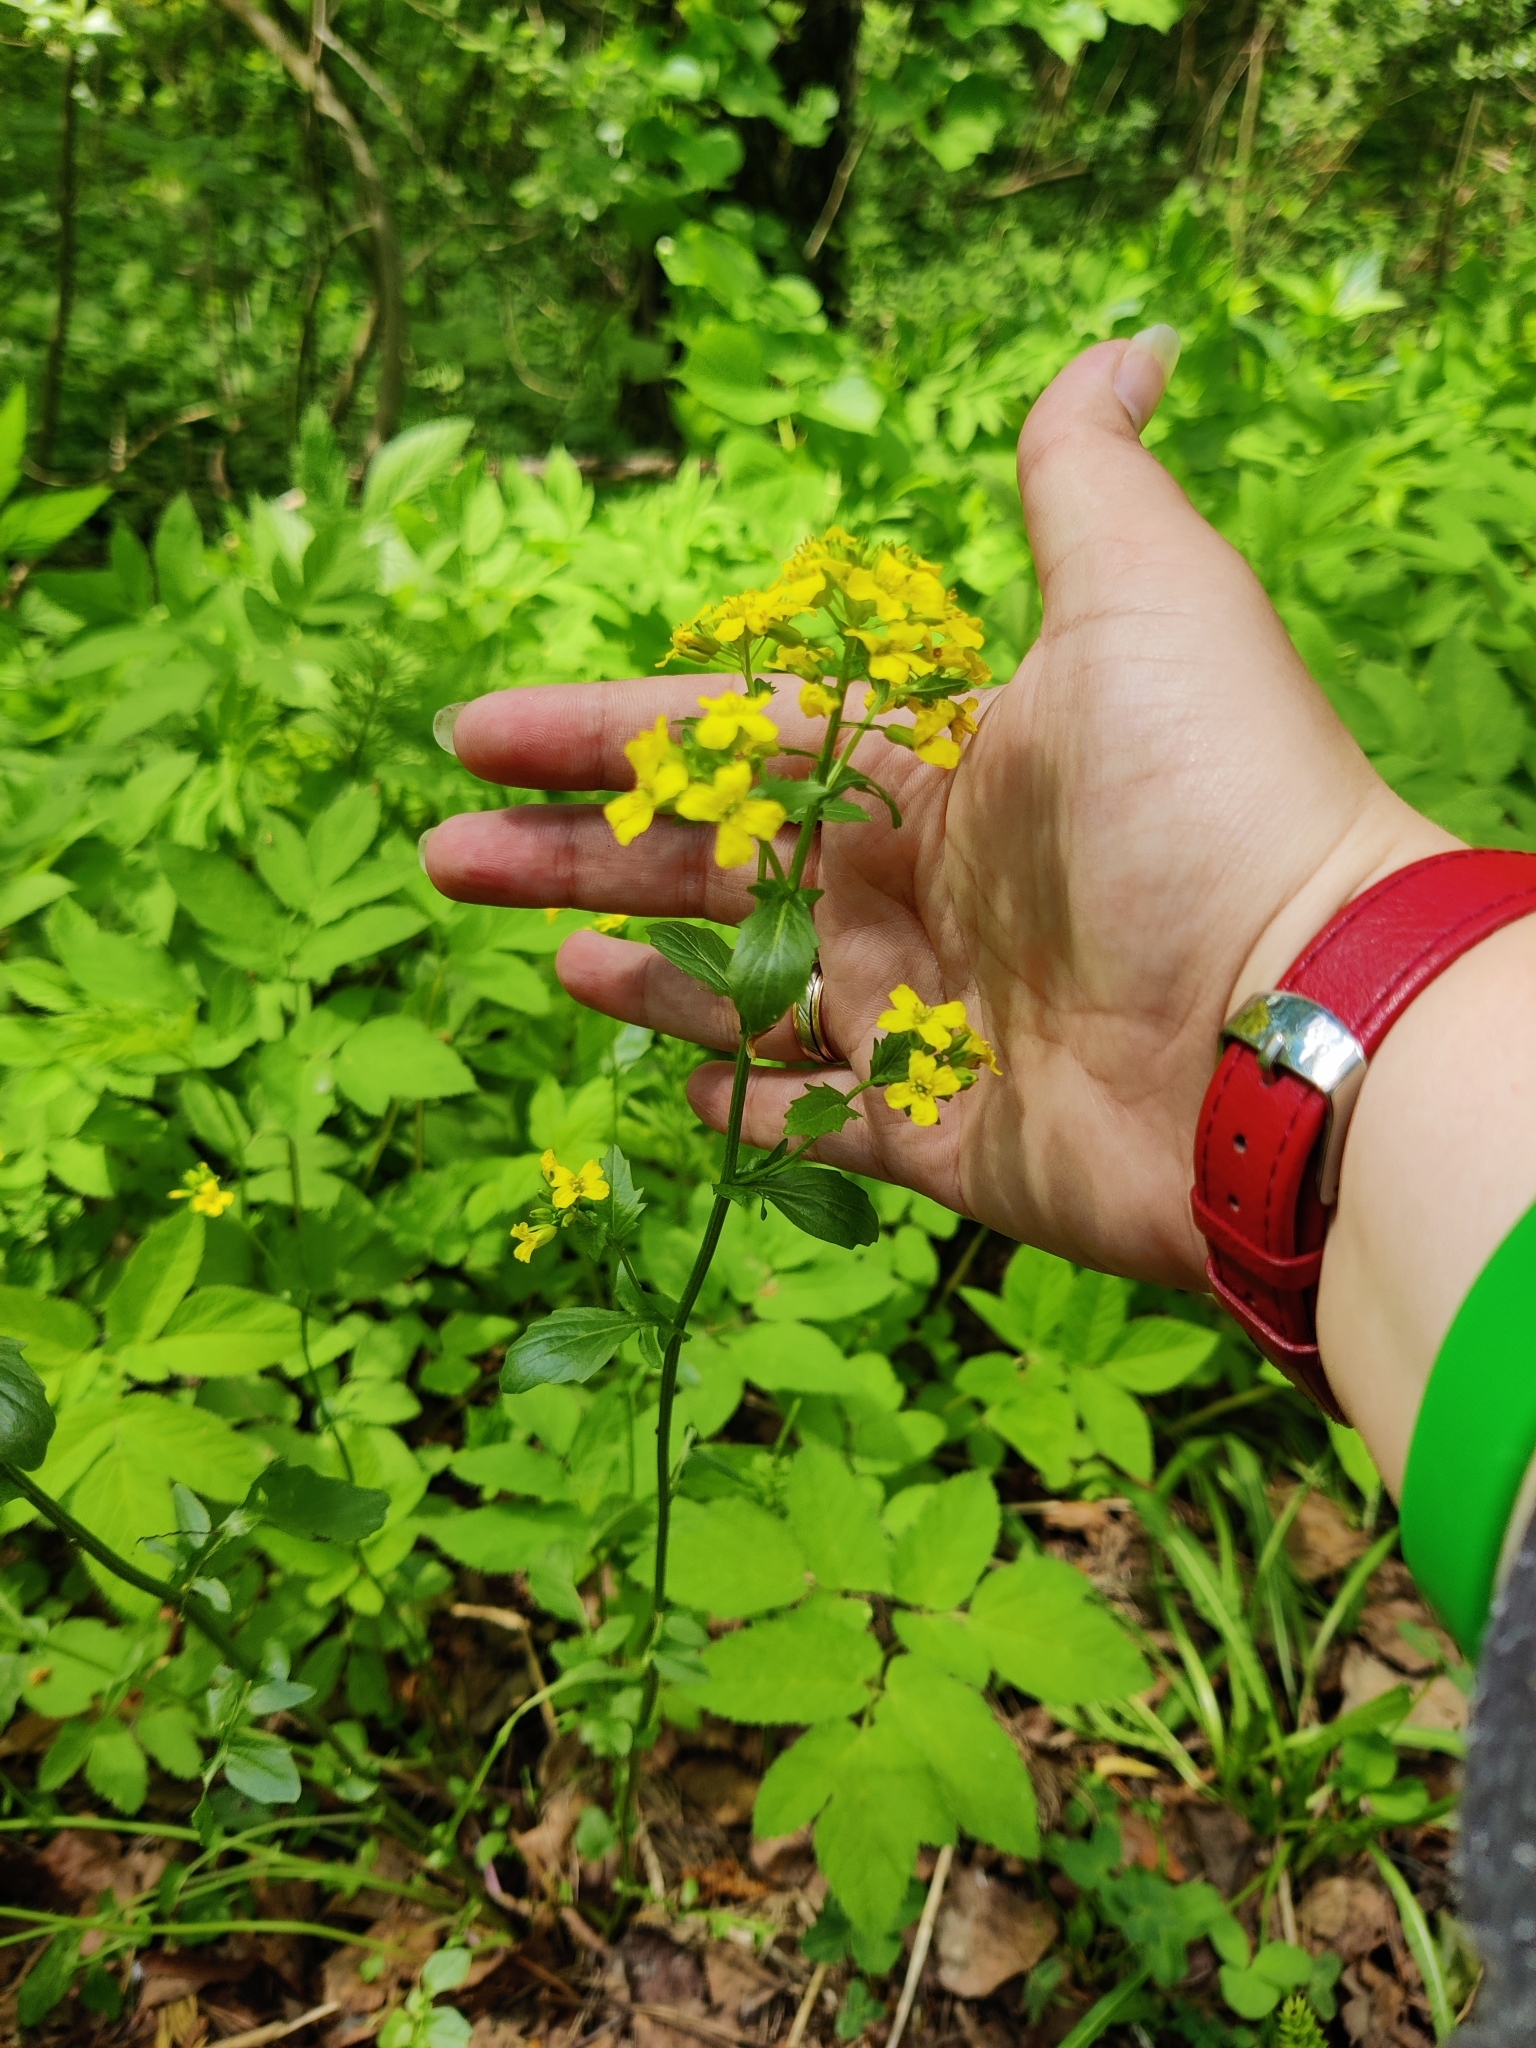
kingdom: Plantae
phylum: Tracheophyta
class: Magnoliopsida
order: Brassicales
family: Brassicaceae
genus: Barbarea
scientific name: Barbarea vulgaris
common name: Cressy-greens
